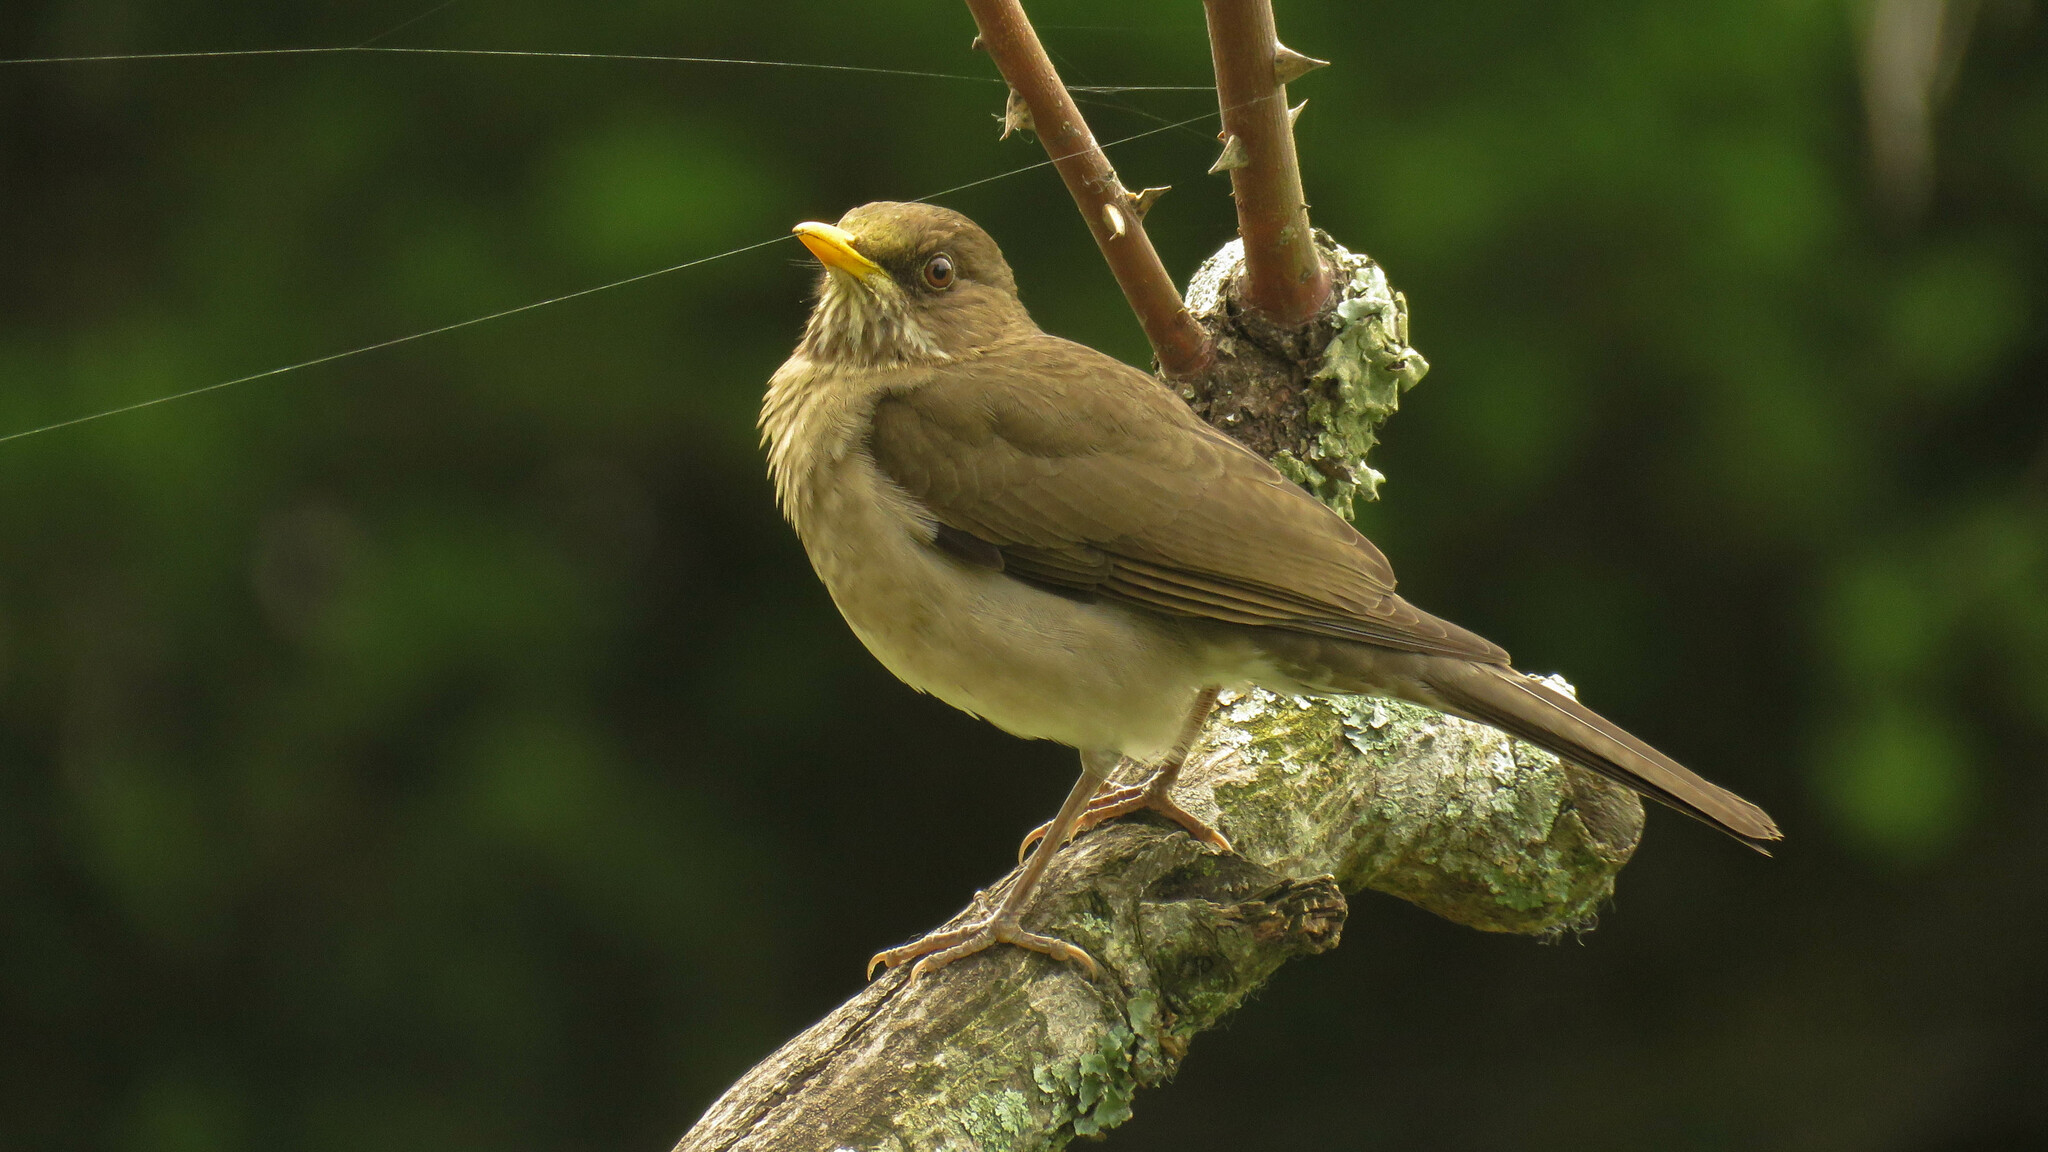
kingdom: Animalia
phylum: Chordata
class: Aves
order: Passeriformes
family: Turdidae
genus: Turdus
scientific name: Turdus amaurochalinus
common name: Creamy-bellied thrush
